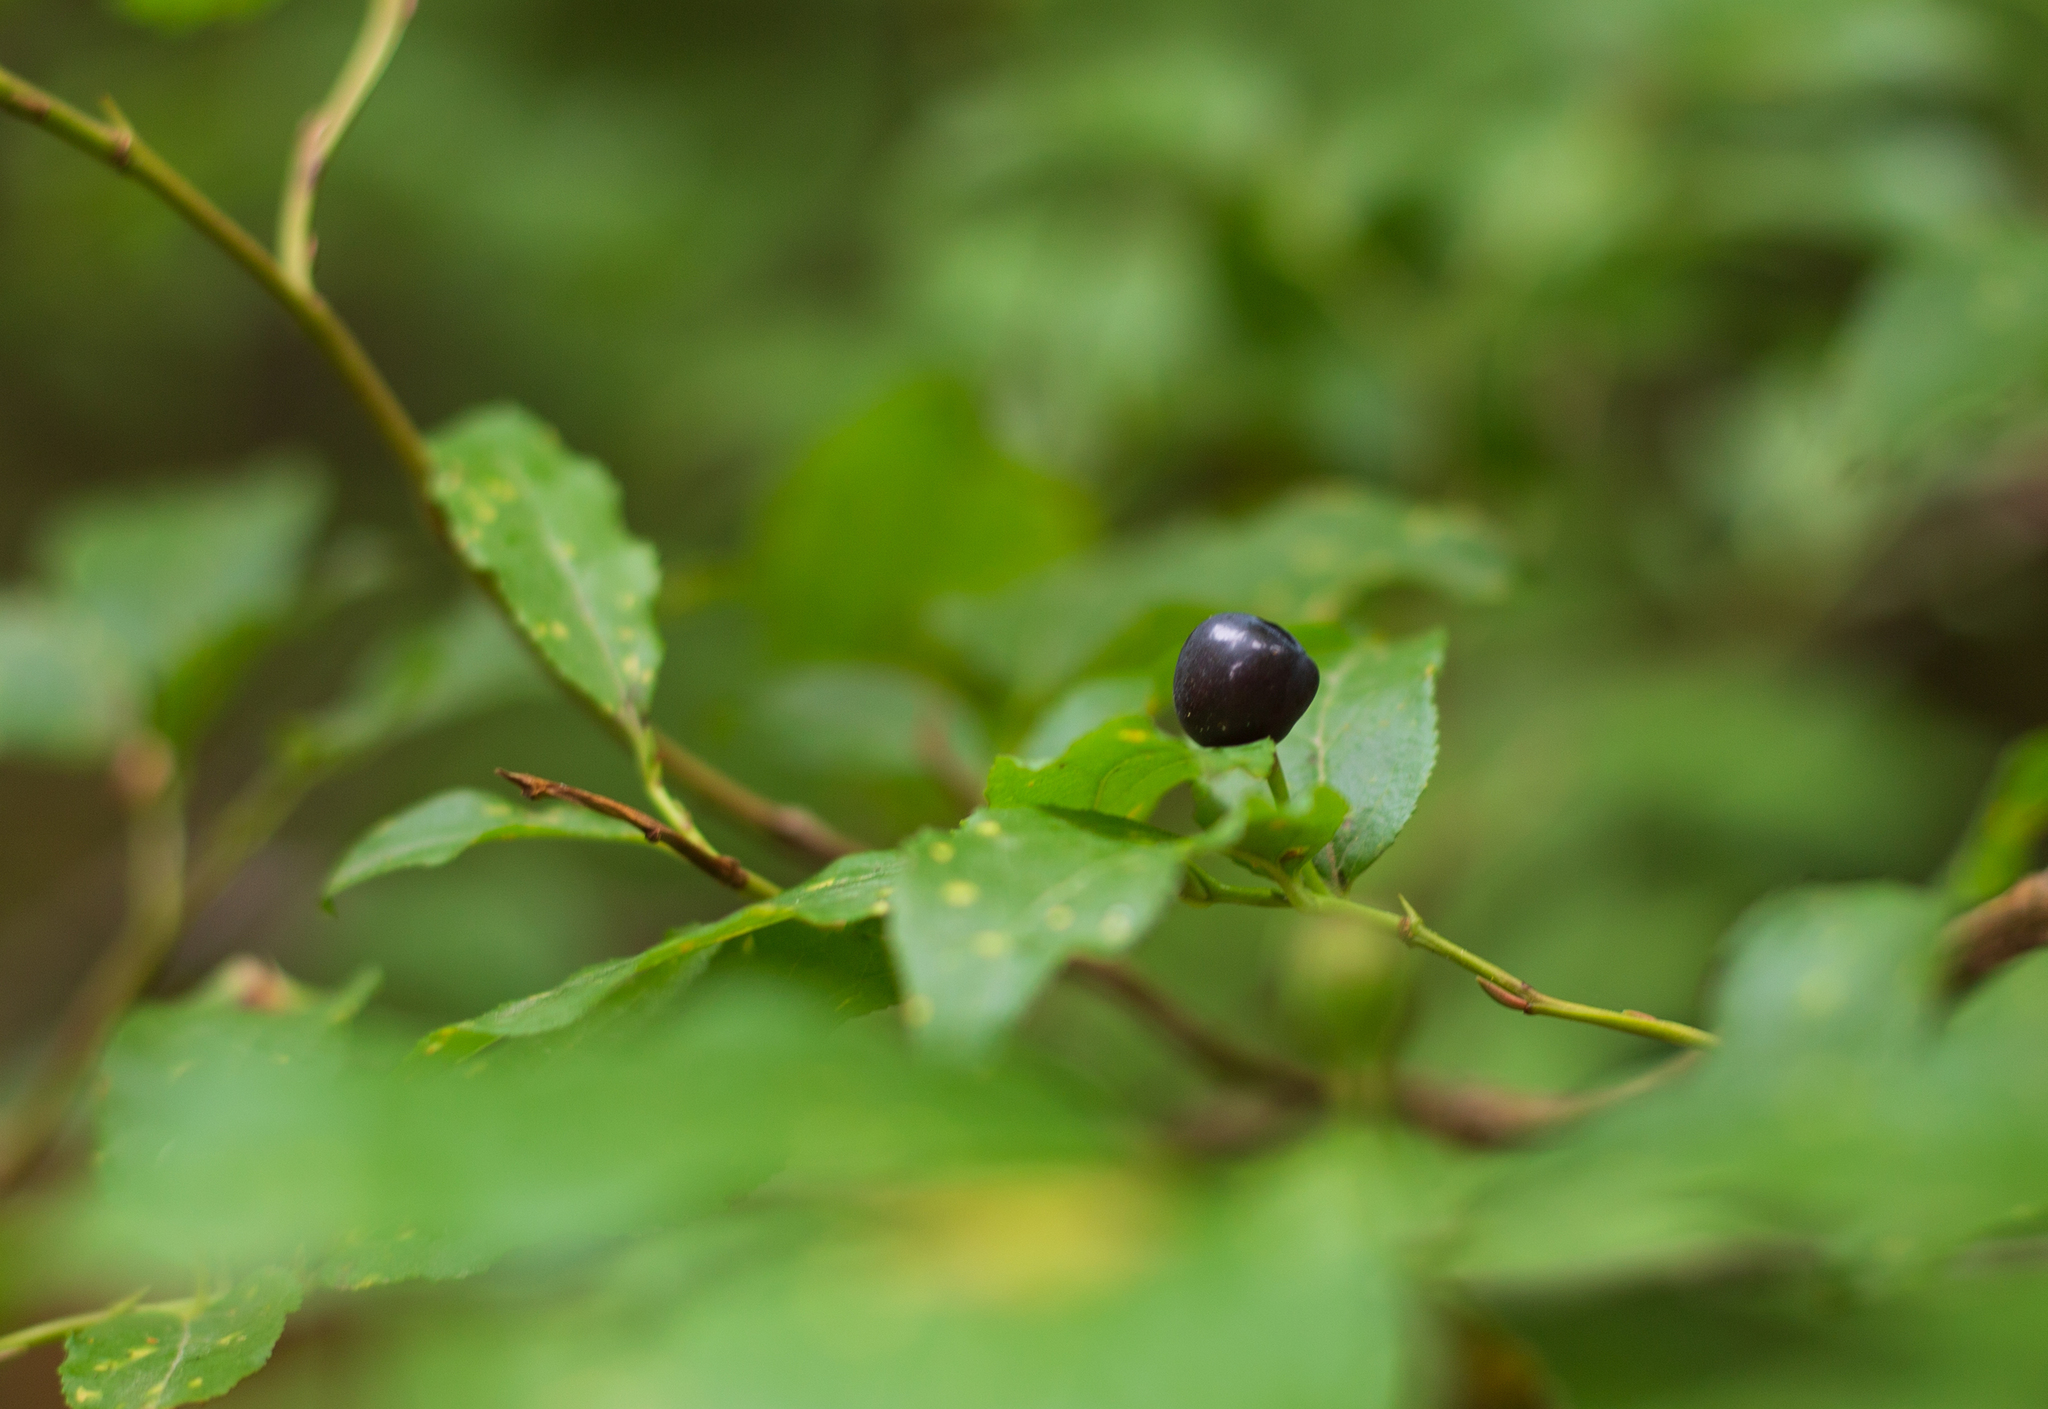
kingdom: Plantae
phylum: Tracheophyta
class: Magnoliopsida
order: Ericales
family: Ericaceae
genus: Vaccinium
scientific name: Vaccinium membranaceum
